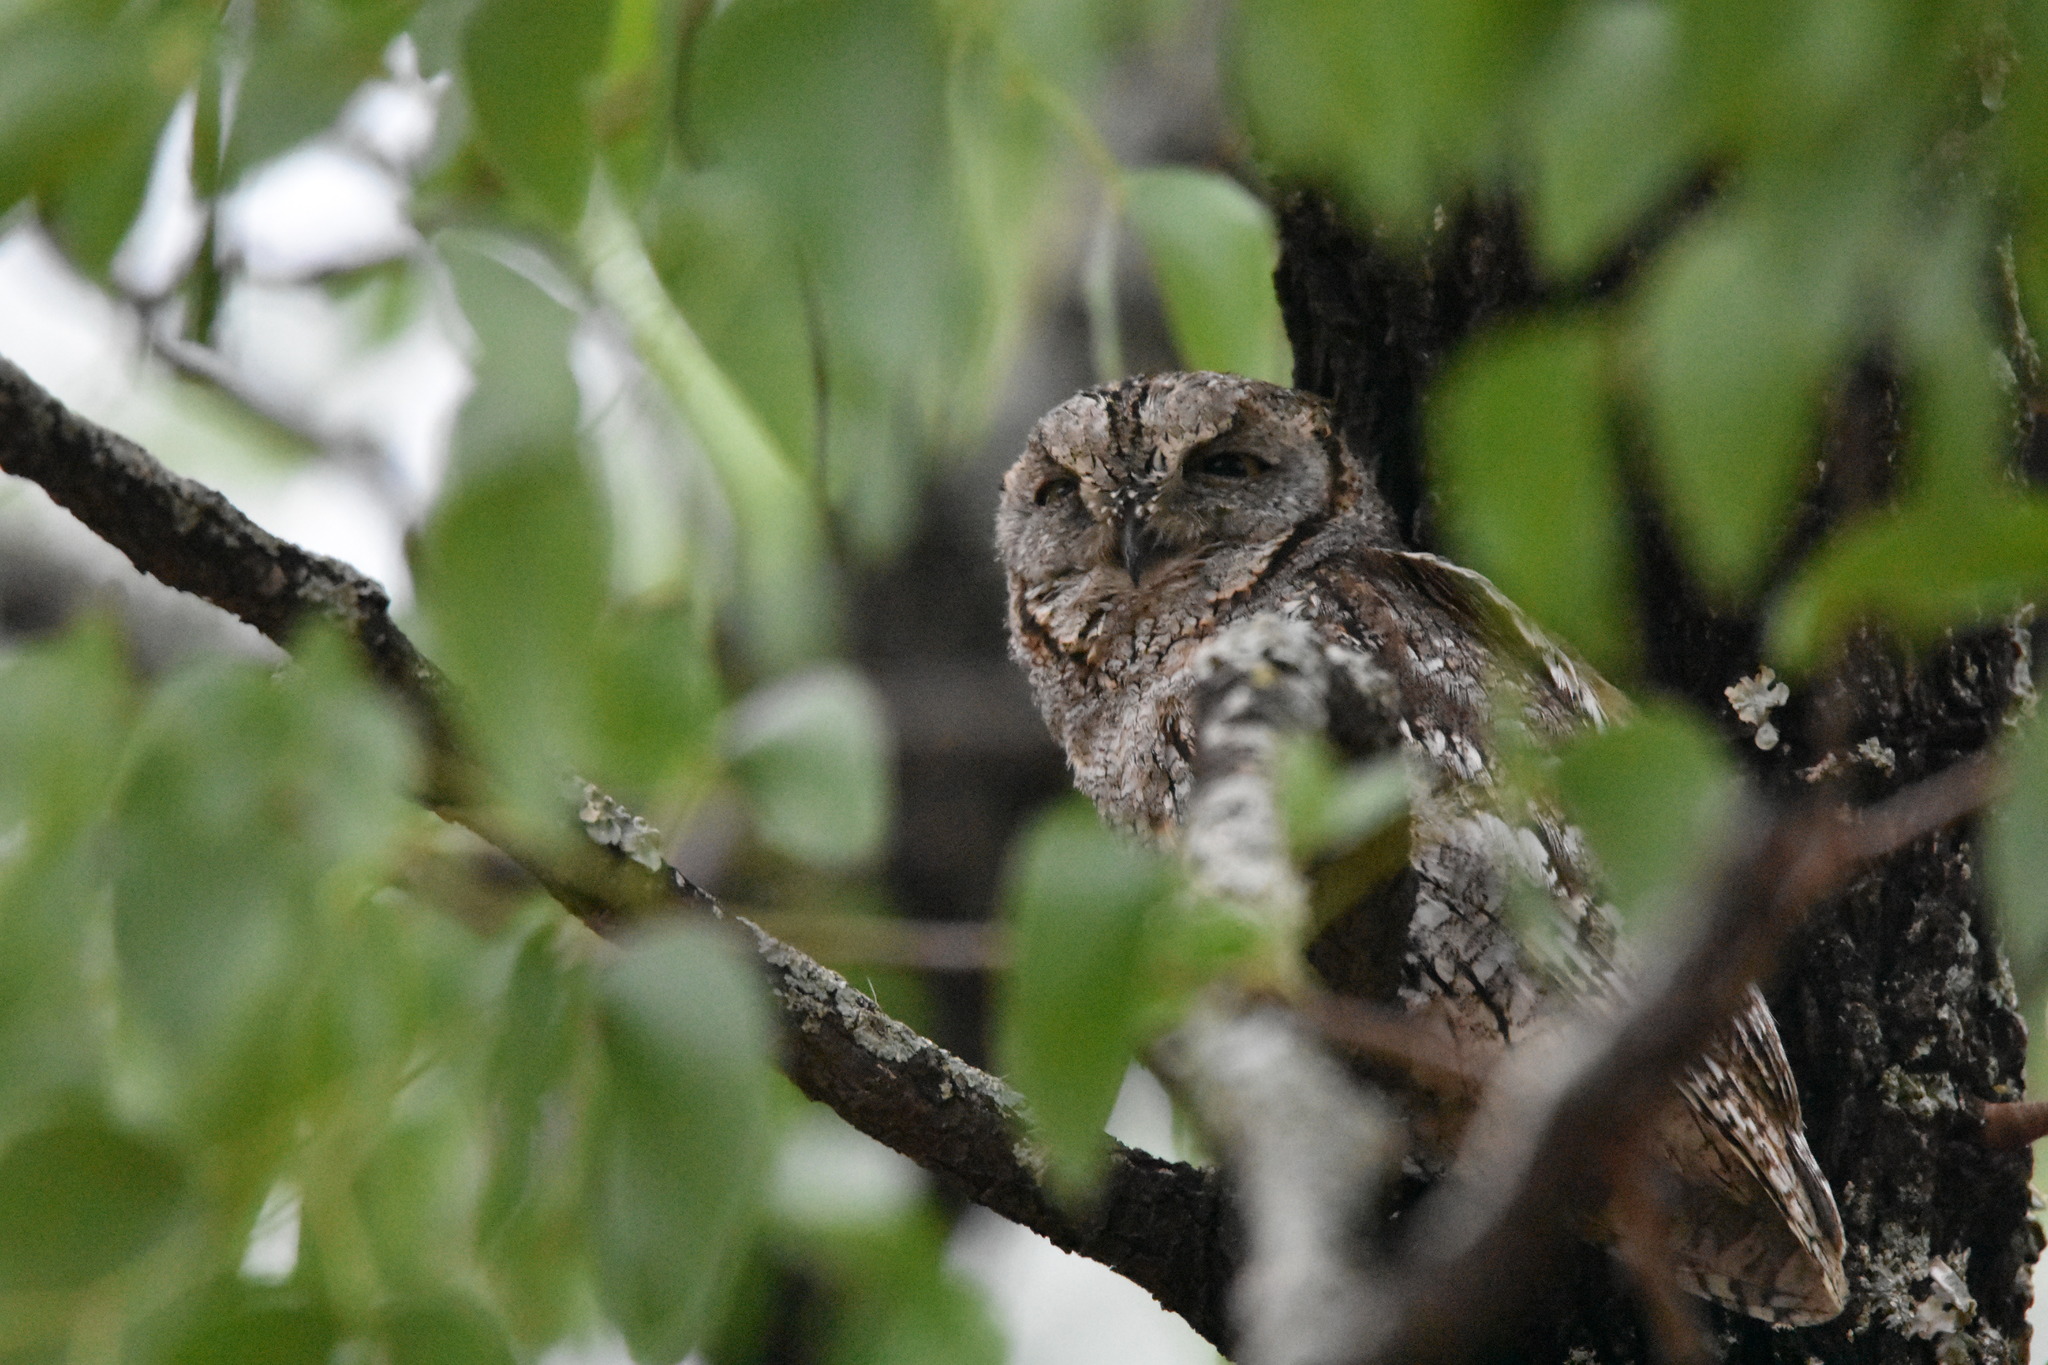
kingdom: Animalia
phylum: Chordata
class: Aves
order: Strigiformes
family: Strigidae
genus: Otus
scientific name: Otus senegalensis
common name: African scops owl
